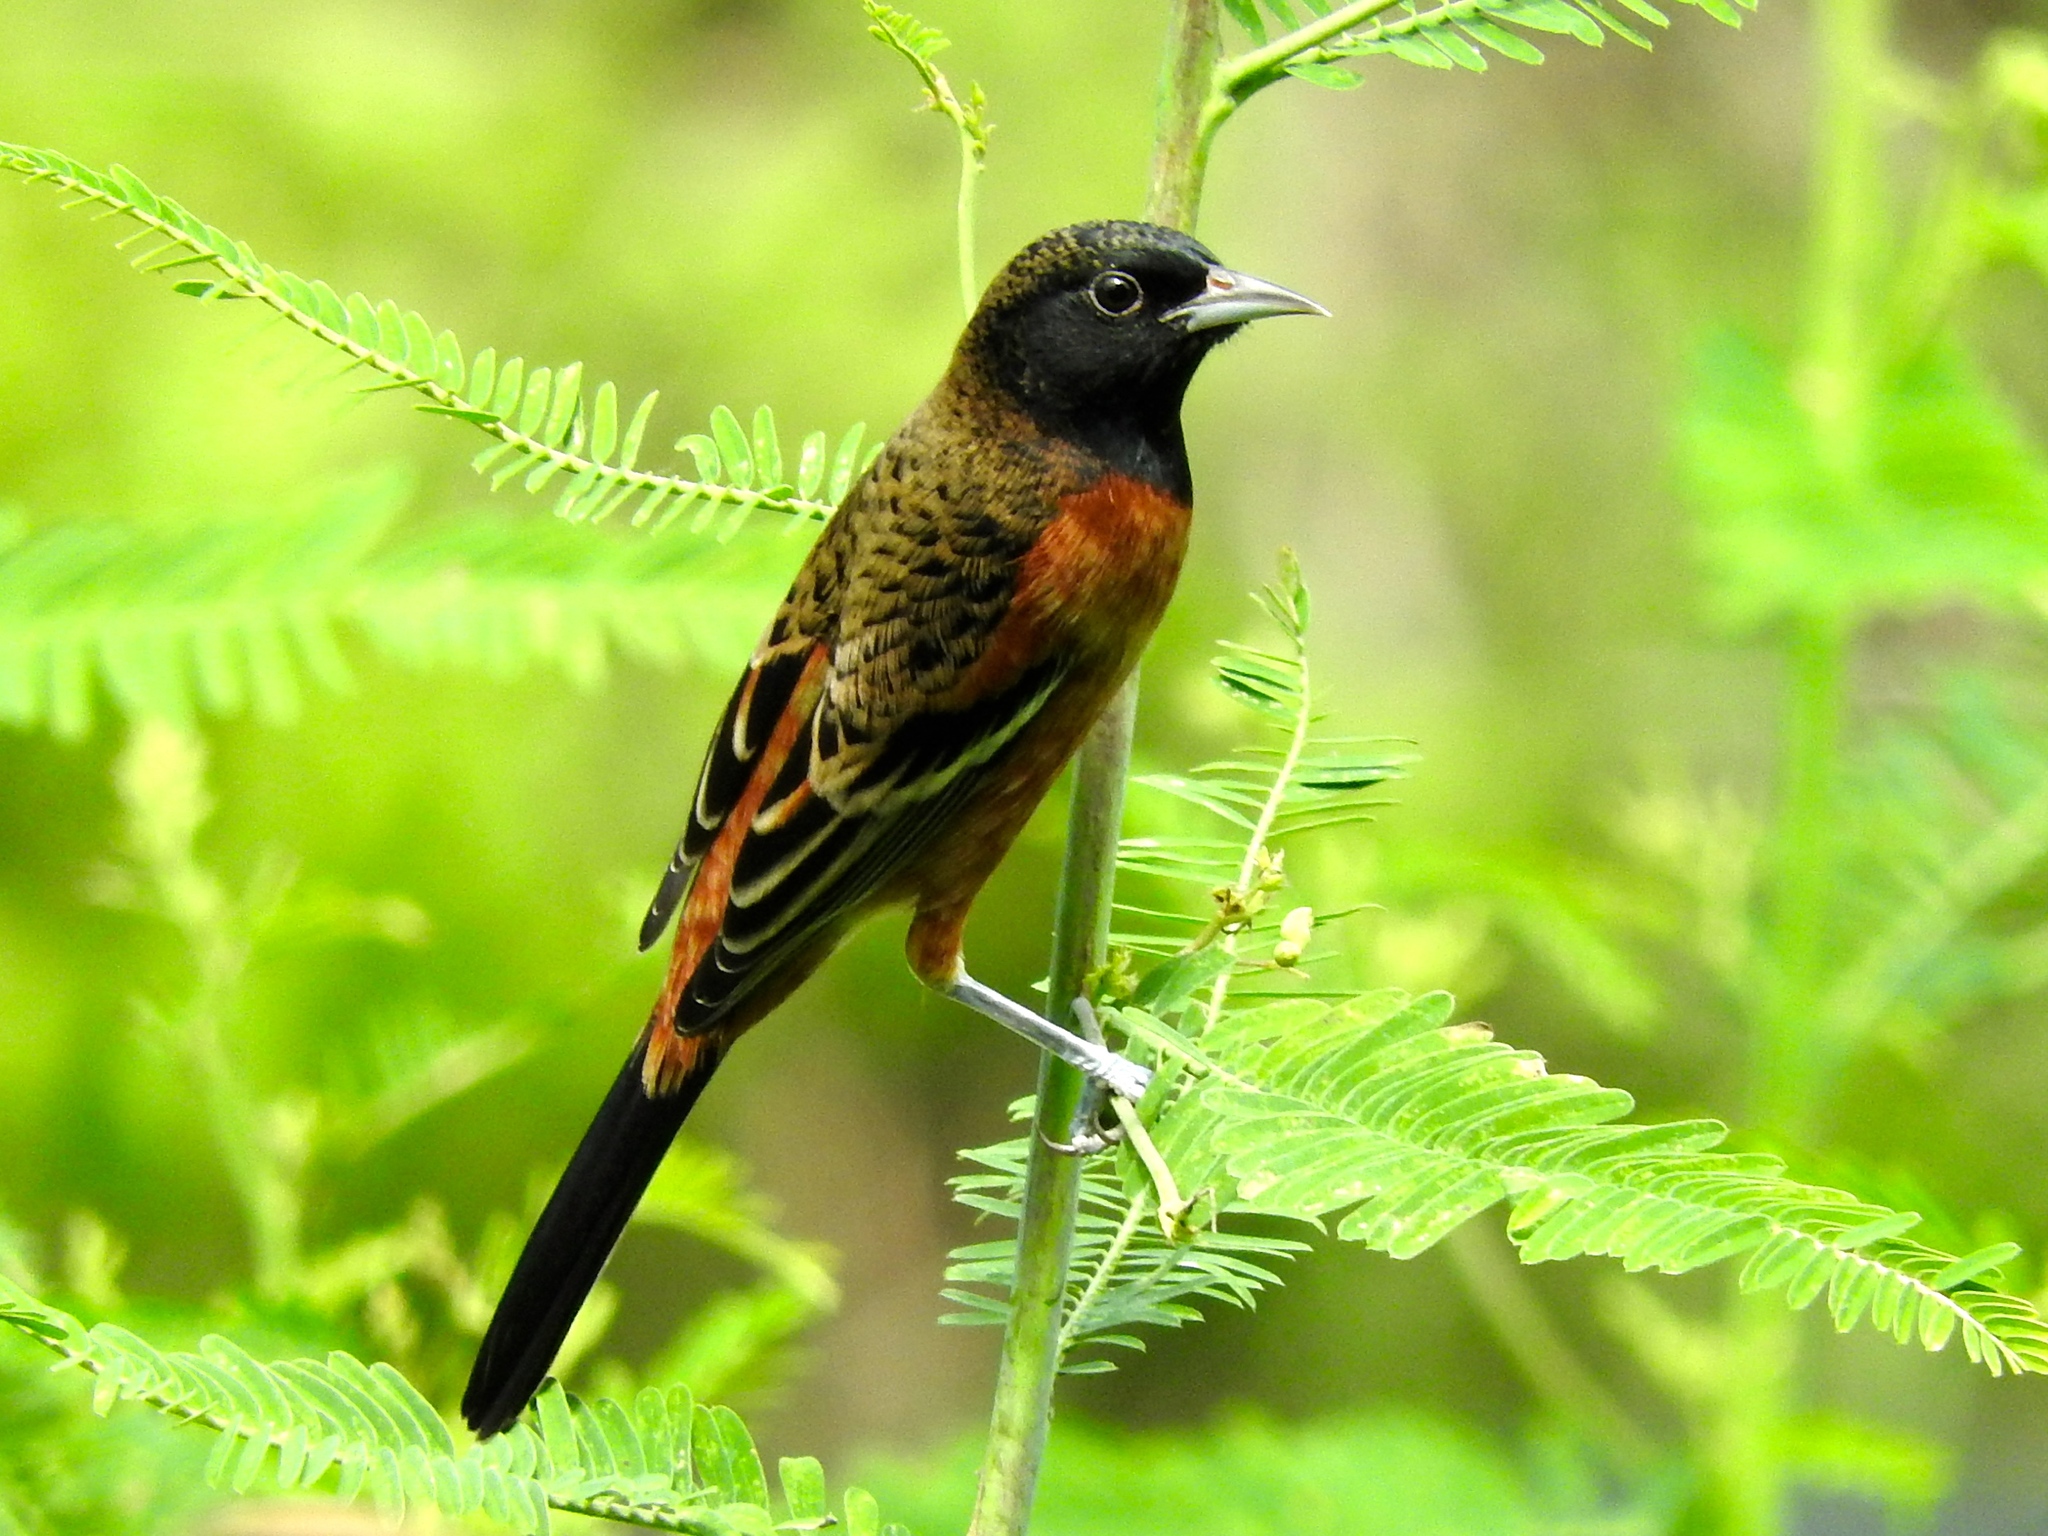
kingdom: Animalia
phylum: Chordata
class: Aves
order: Passeriformes
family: Icteridae
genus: Icterus
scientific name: Icterus spurius
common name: Orchard oriole
